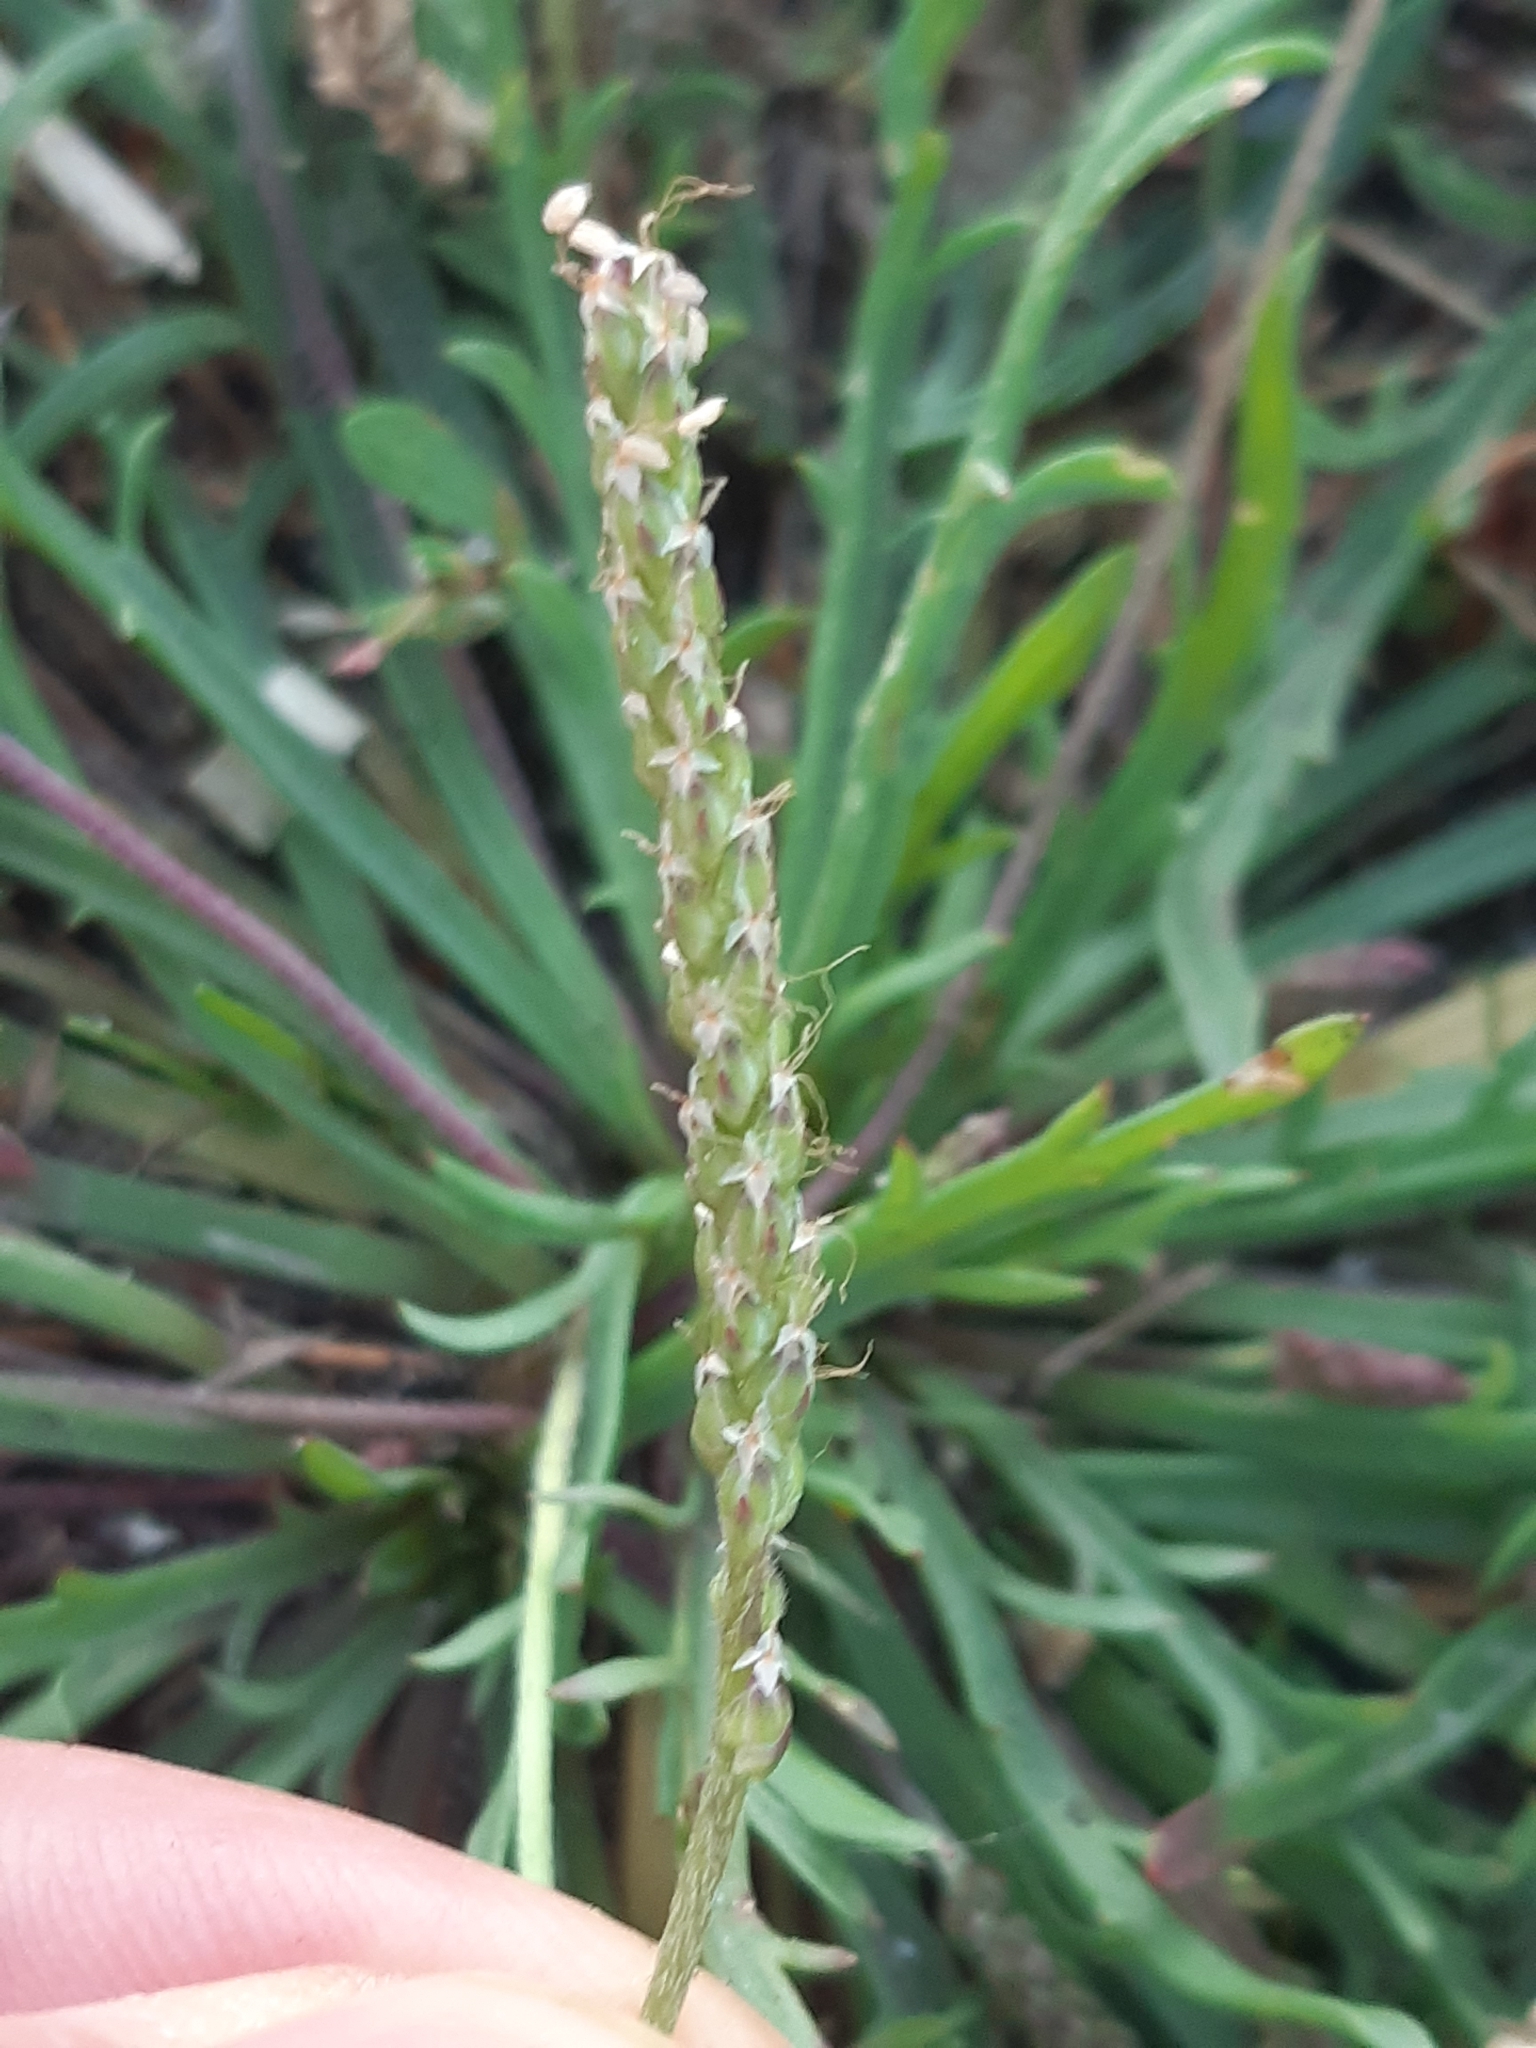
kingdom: Plantae
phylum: Tracheophyta
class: Magnoliopsida
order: Lamiales
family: Plantaginaceae
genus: Plantago
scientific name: Plantago coronopus
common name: Buck's-horn plantain
